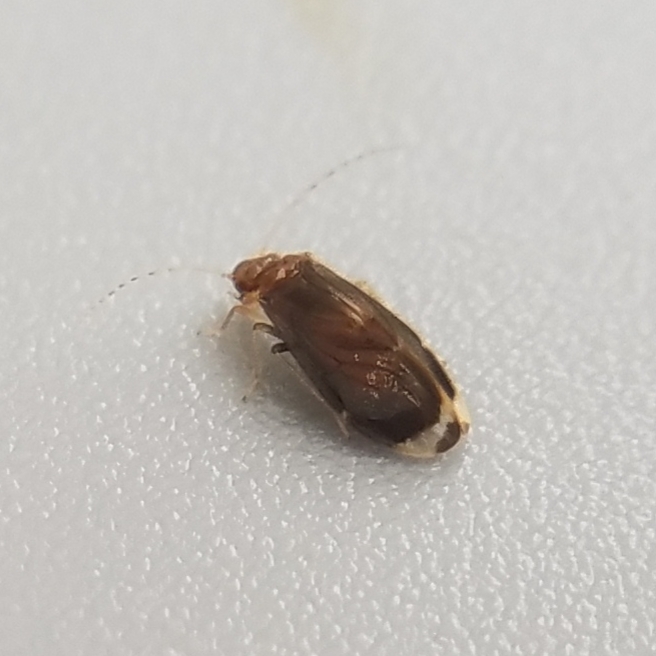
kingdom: Animalia
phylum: Arthropoda
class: Insecta
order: Psocodea
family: Amphipsocidae
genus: Polypsocus
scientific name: Polypsocus corruptus
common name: Corrupt barklouse
